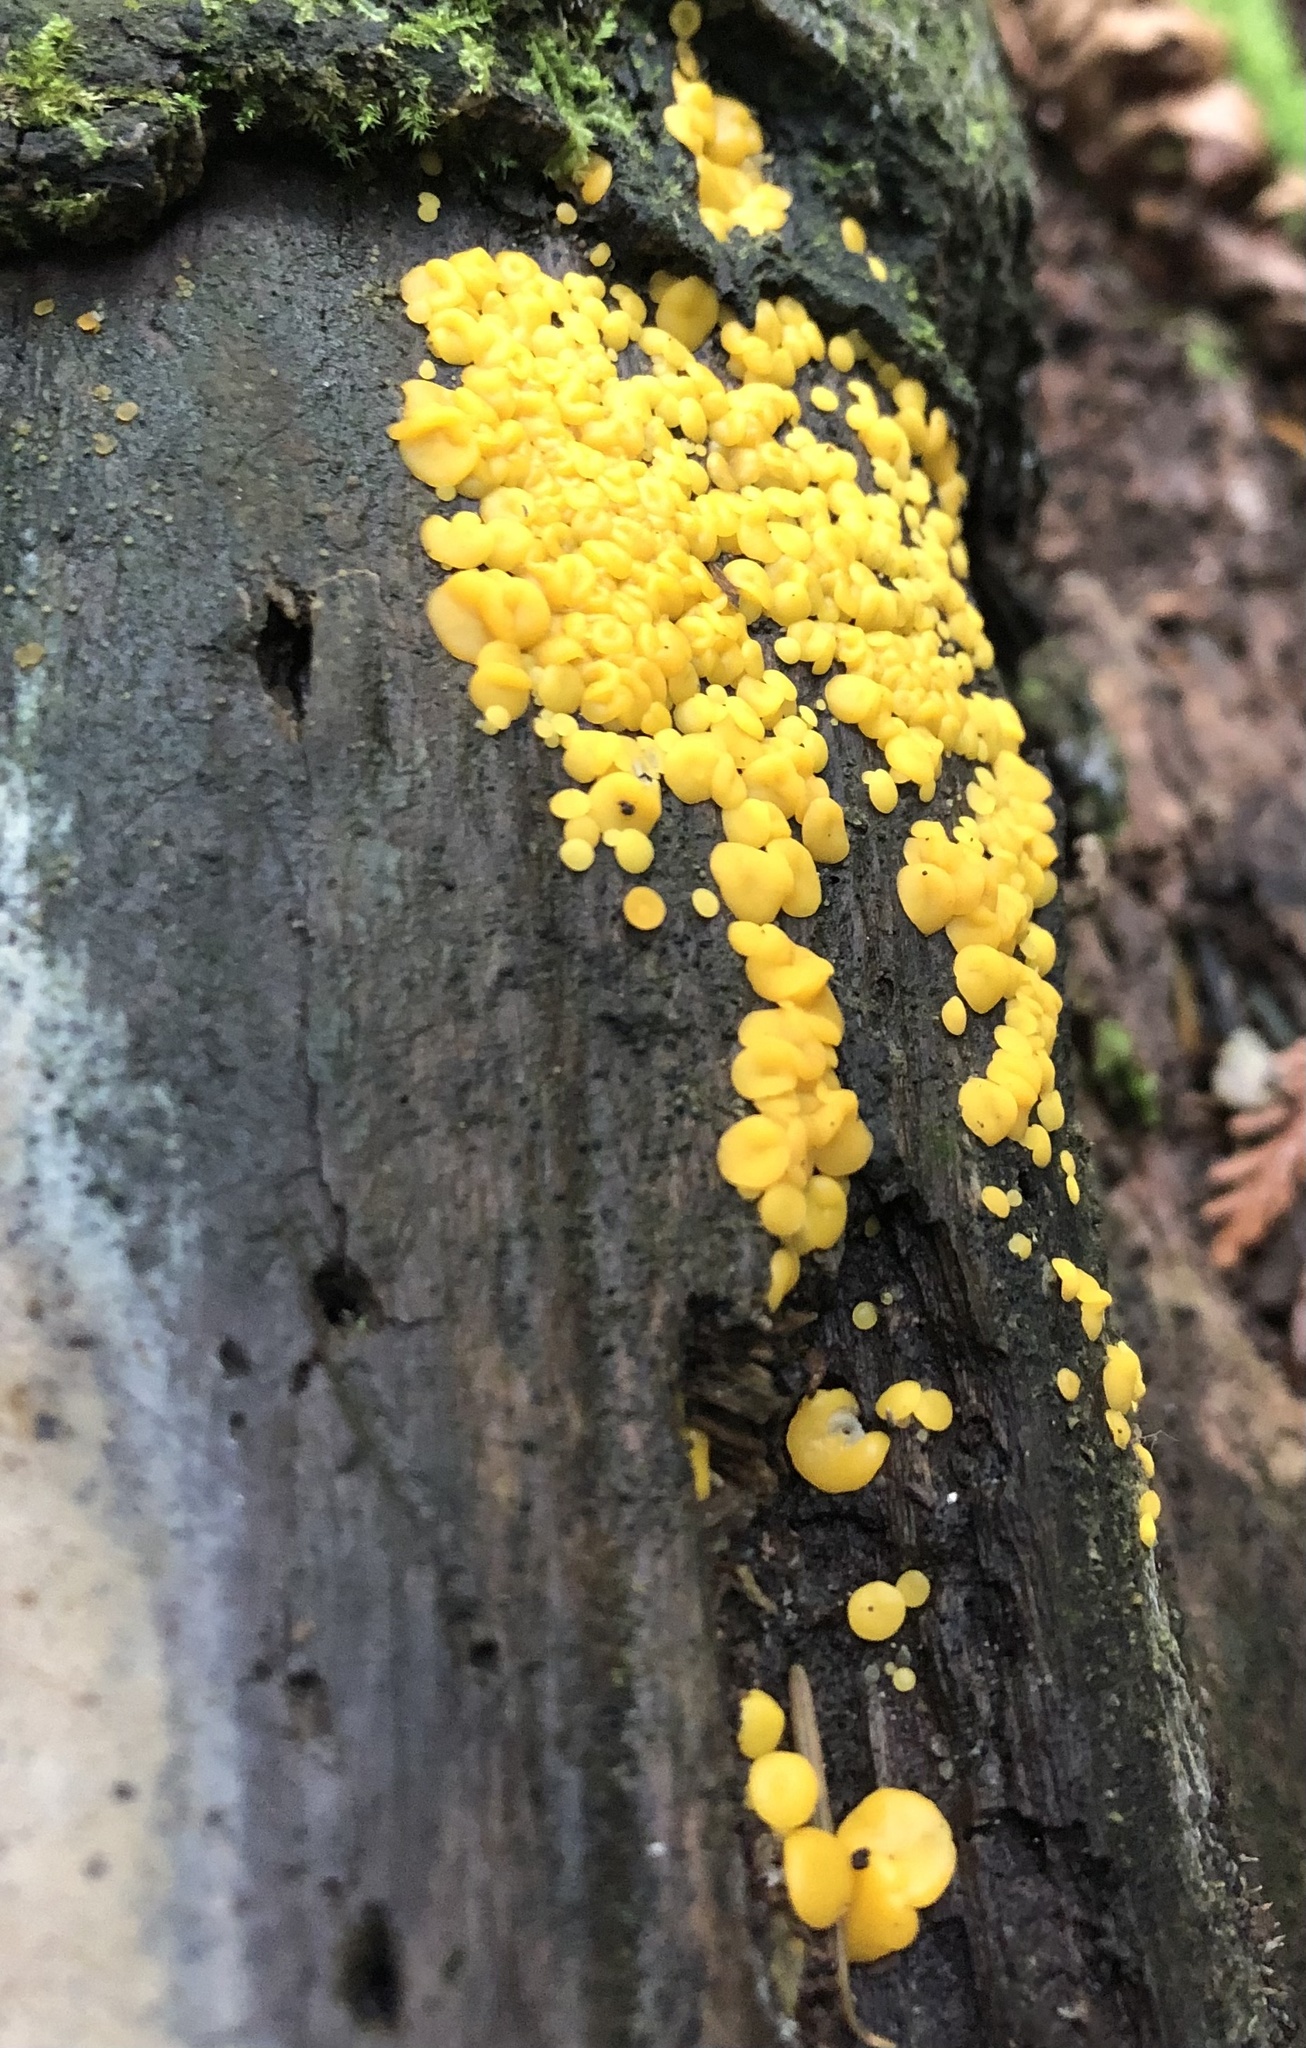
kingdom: Fungi
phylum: Ascomycota
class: Leotiomycetes
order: Helotiales
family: Pezizellaceae
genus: Calycina
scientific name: Calycina citrina
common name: Yellow fairy cups
